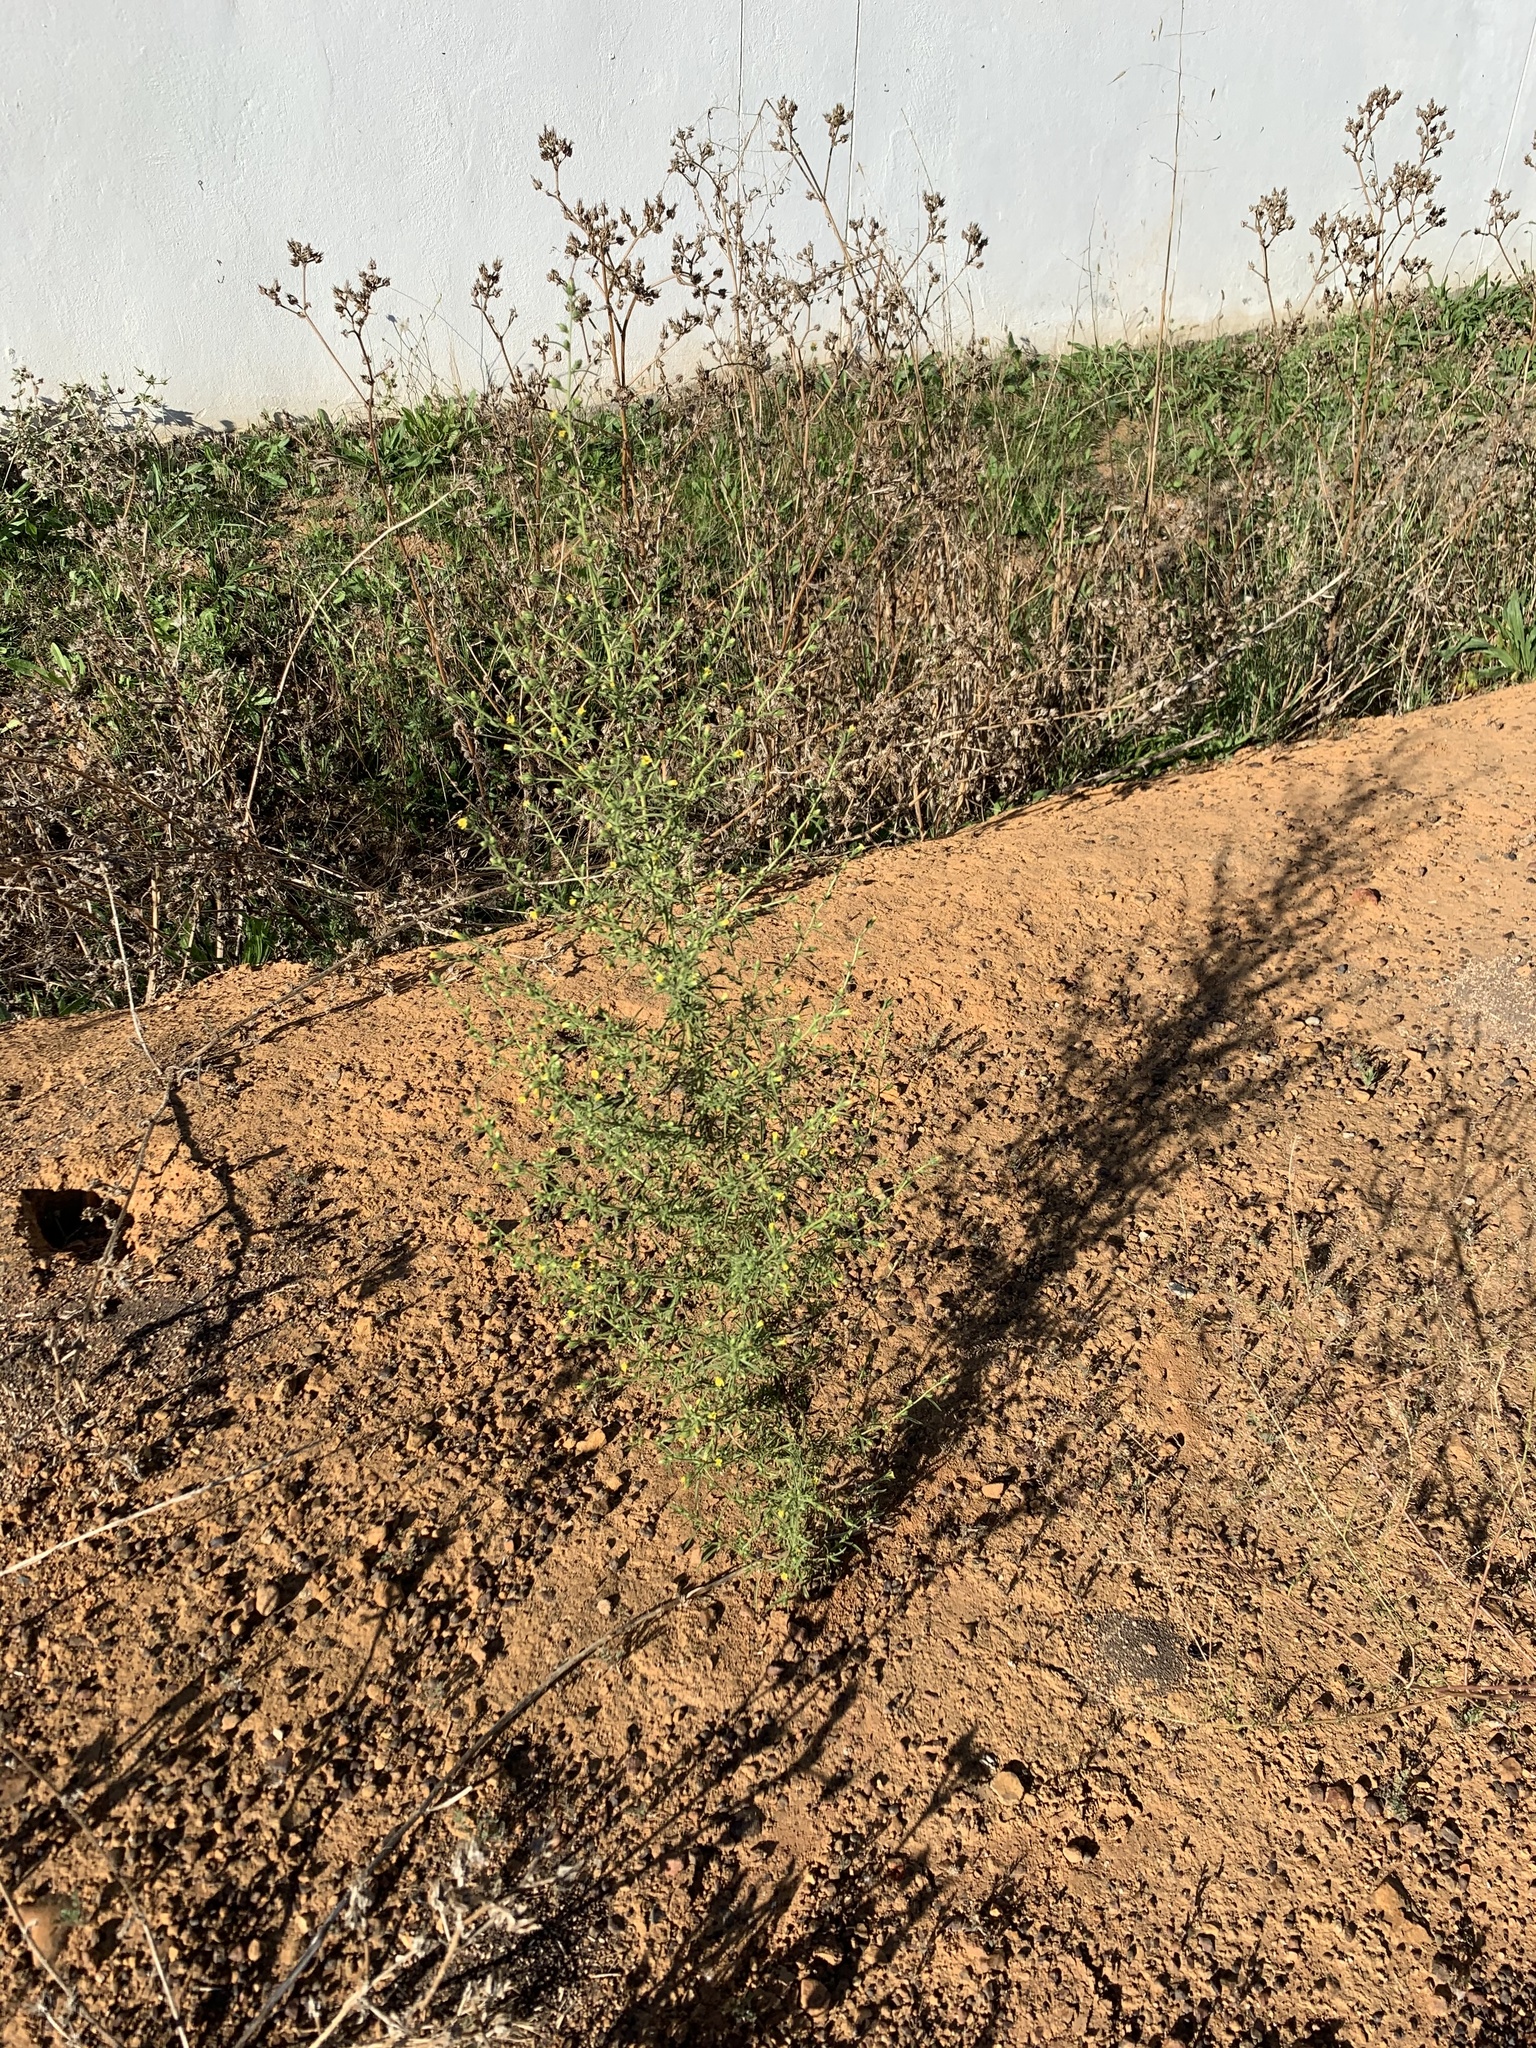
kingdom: Plantae
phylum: Tracheophyta
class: Magnoliopsida
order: Asterales
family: Asteraceae
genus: Dittrichia
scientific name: Dittrichia graveolens
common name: Stinking fleabane
